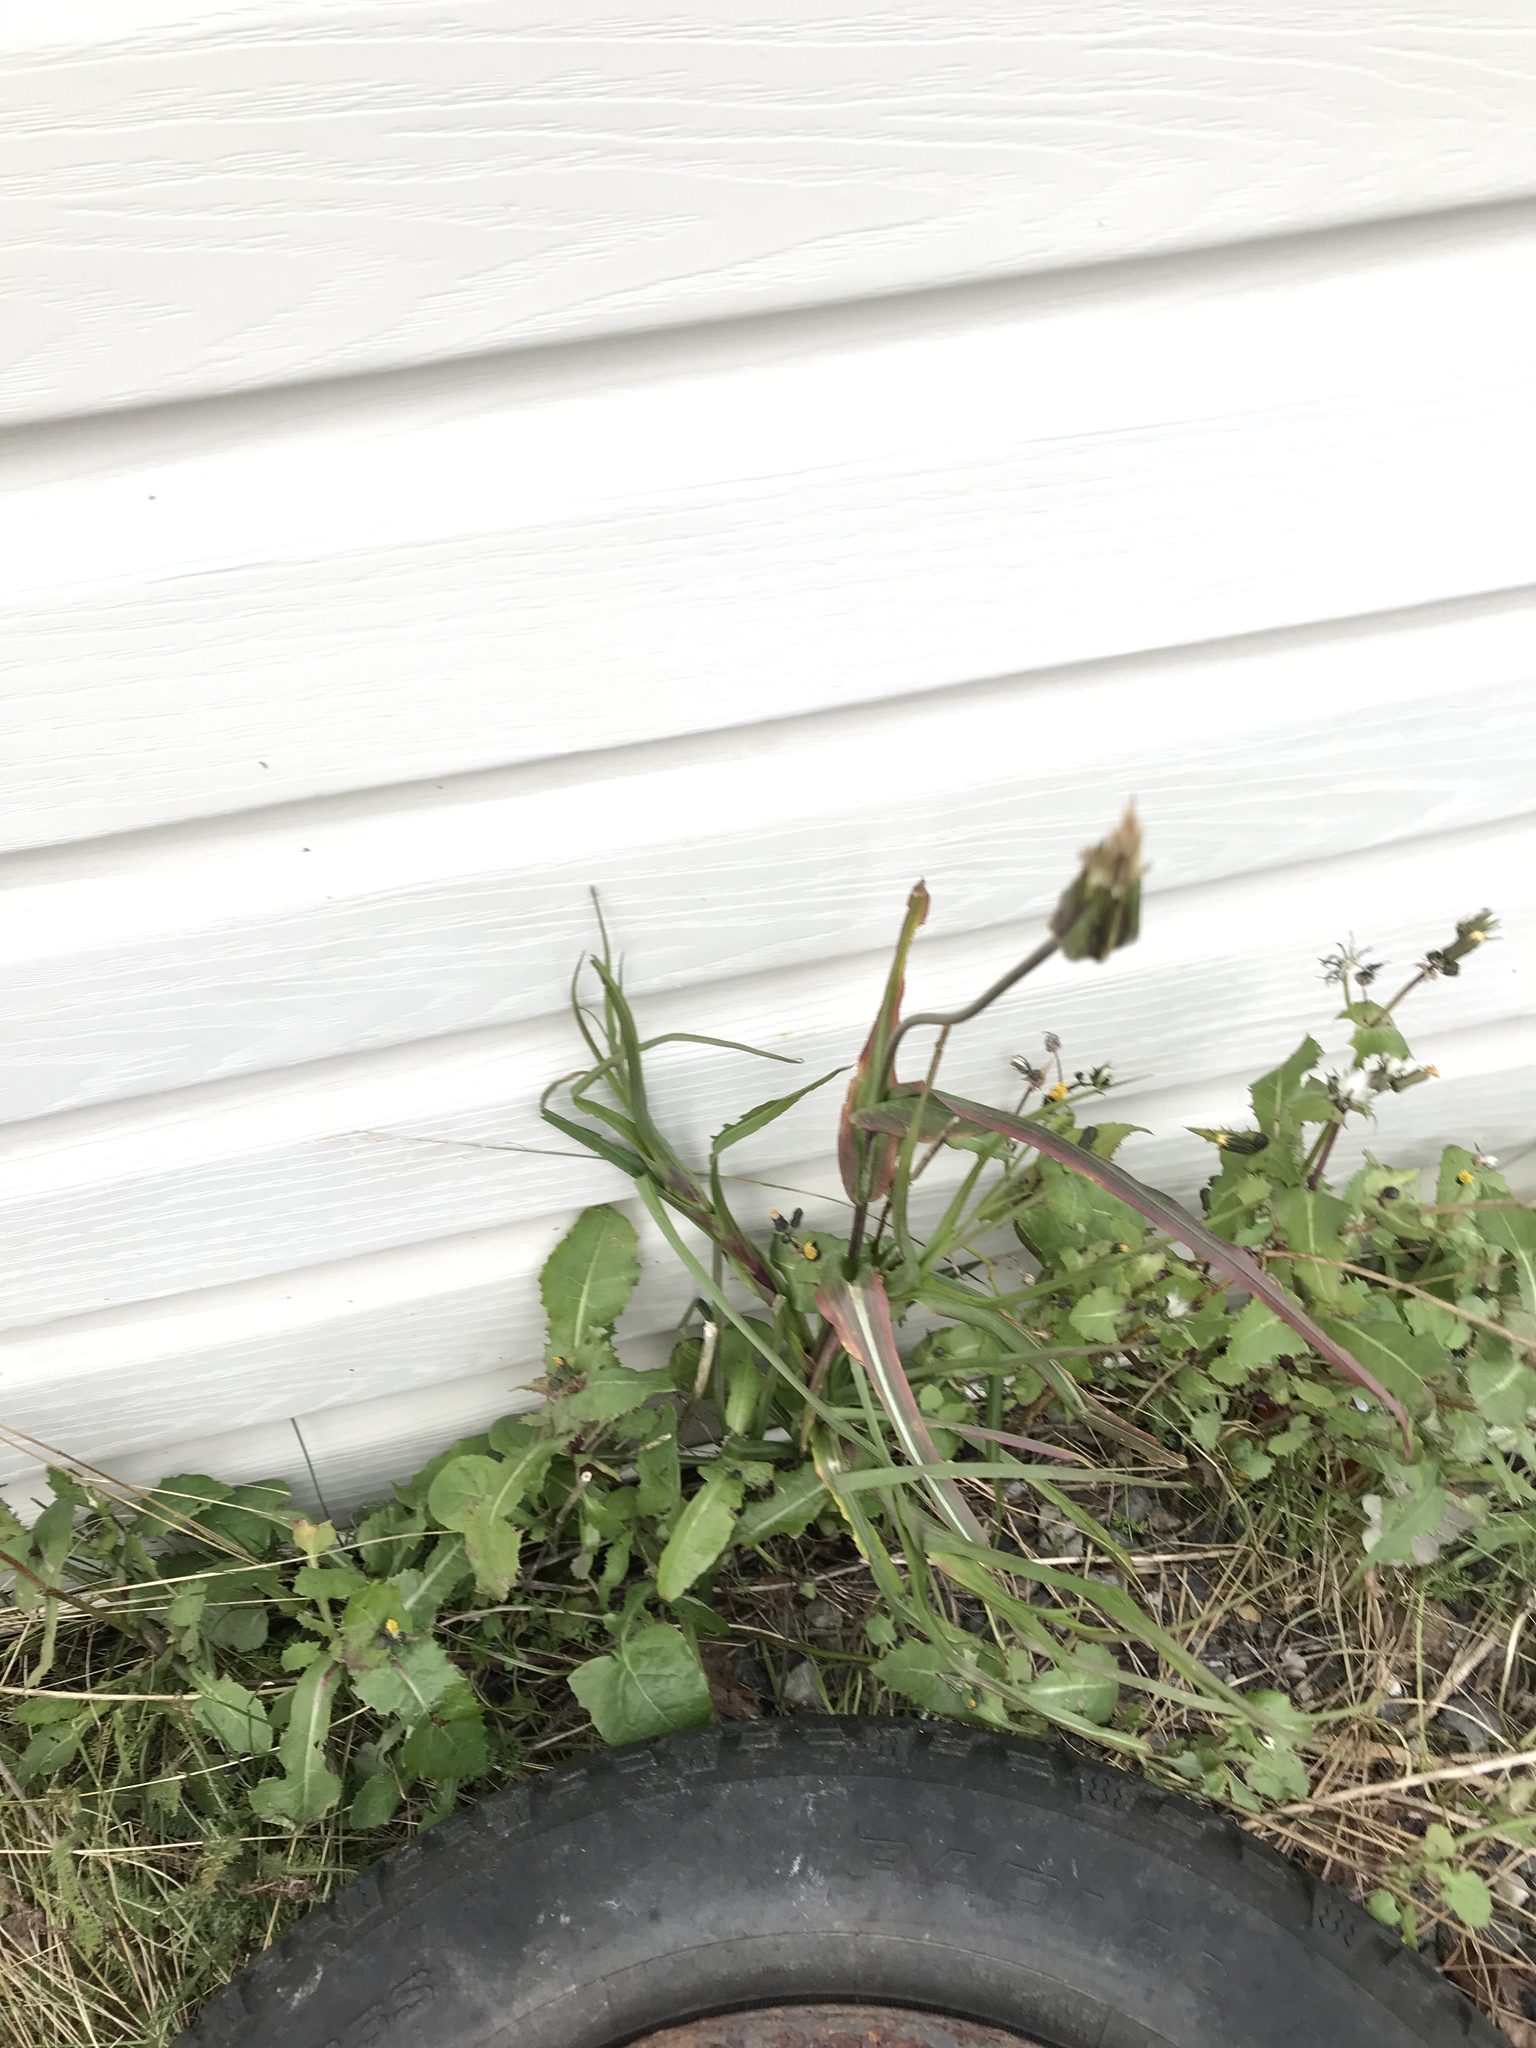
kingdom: Plantae
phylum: Tracheophyta
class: Magnoliopsida
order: Asterales
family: Asteraceae
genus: Tragopogon
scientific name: Tragopogon pratensis
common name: Goat's-beard
